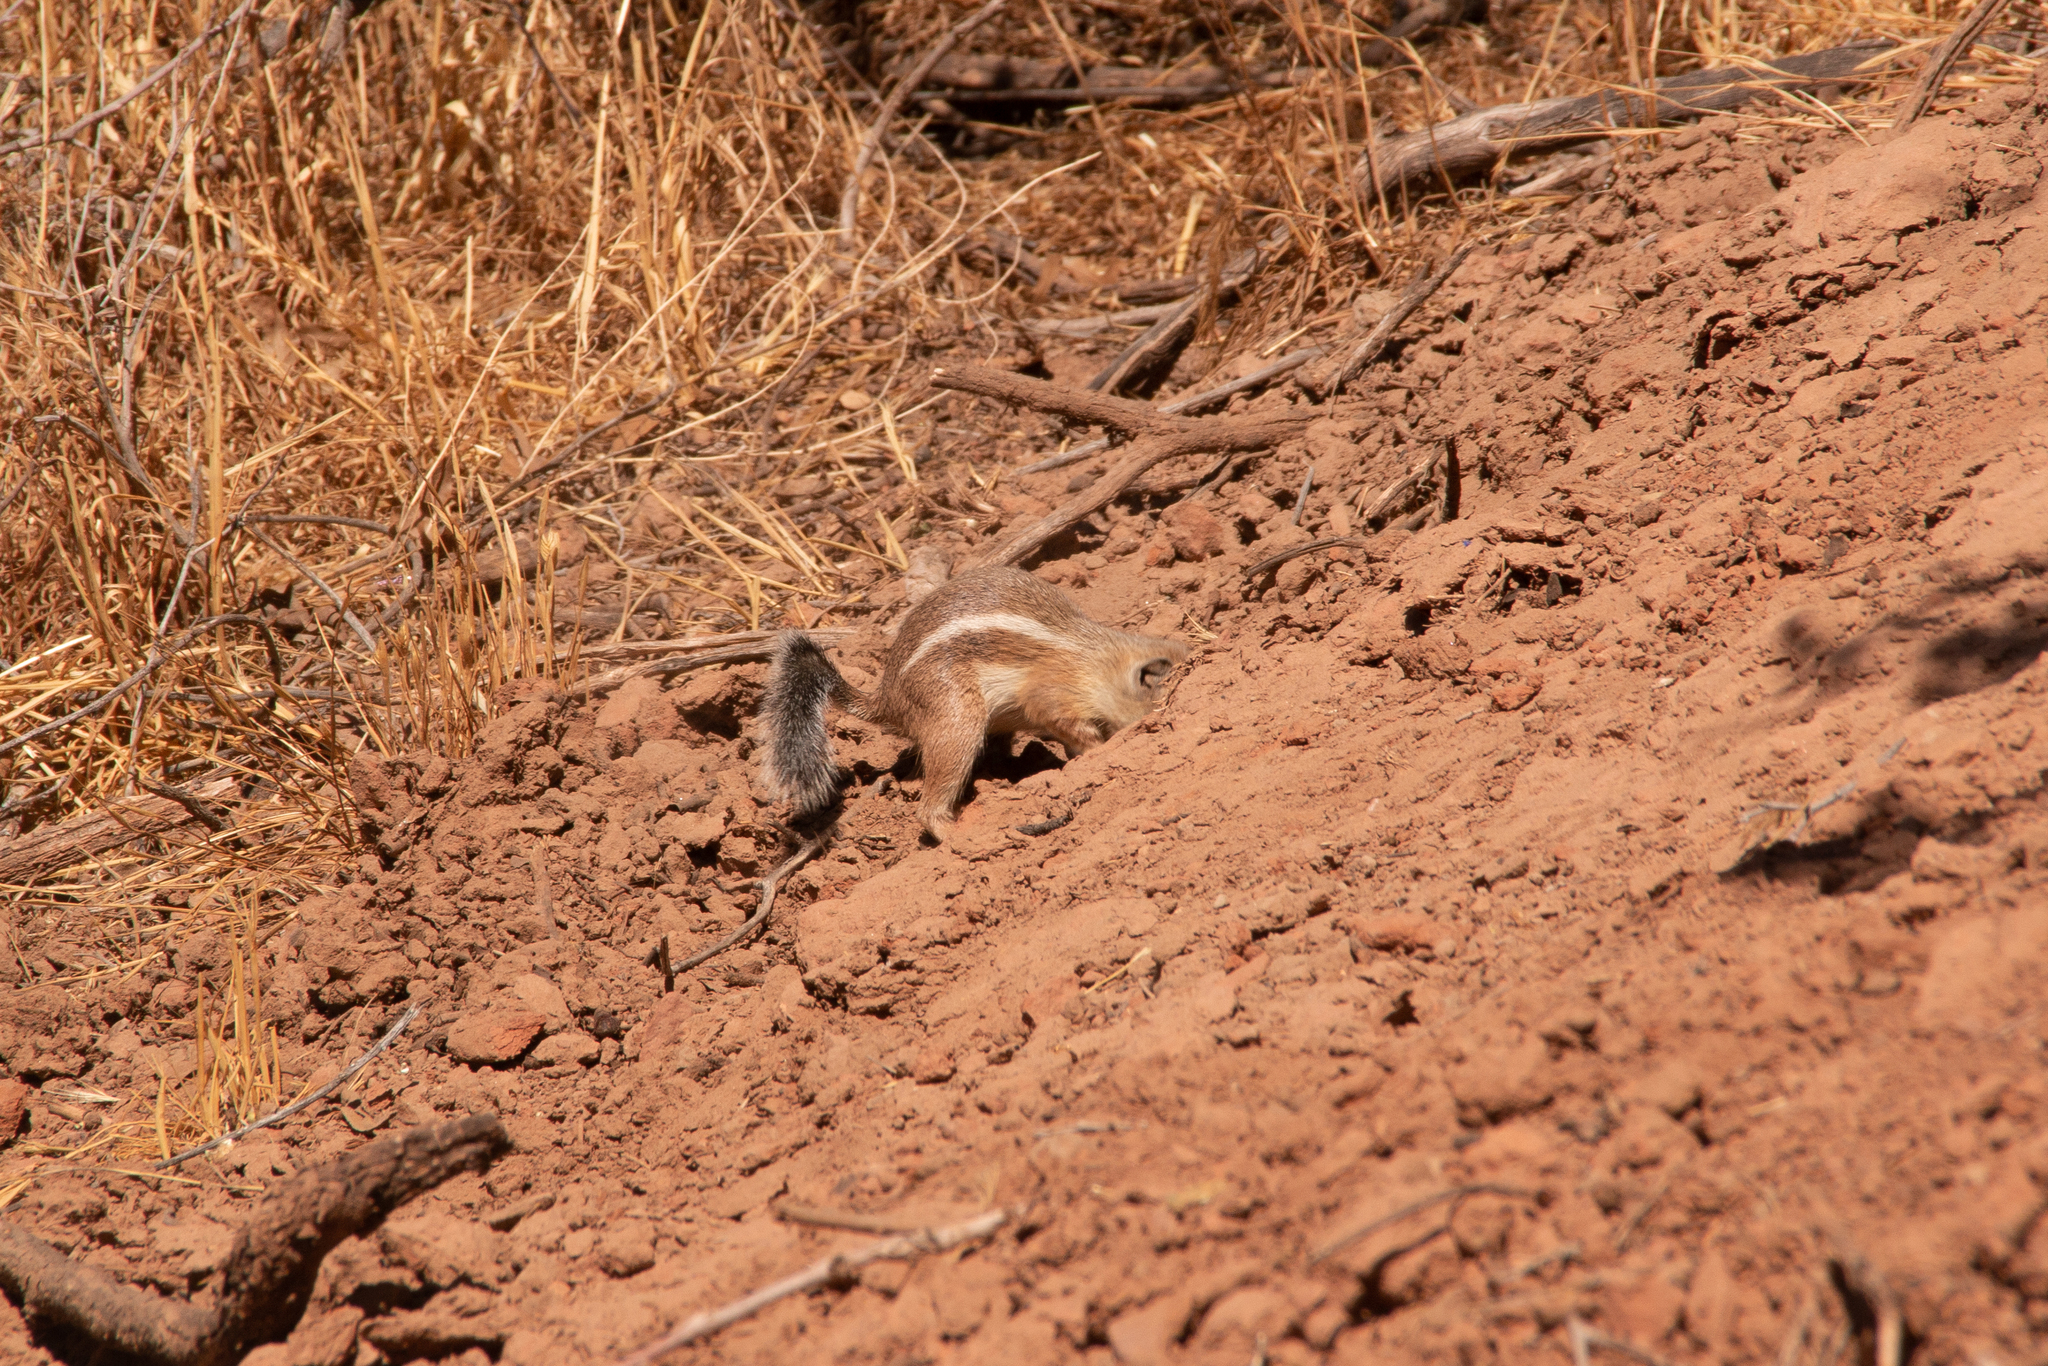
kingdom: Animalia
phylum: Chordata
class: Mammalia
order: Rodentia
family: Sciuridae
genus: Ammospermophilus
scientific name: Ammospermophilus leucurus
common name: White-tailed antelope squirrel
